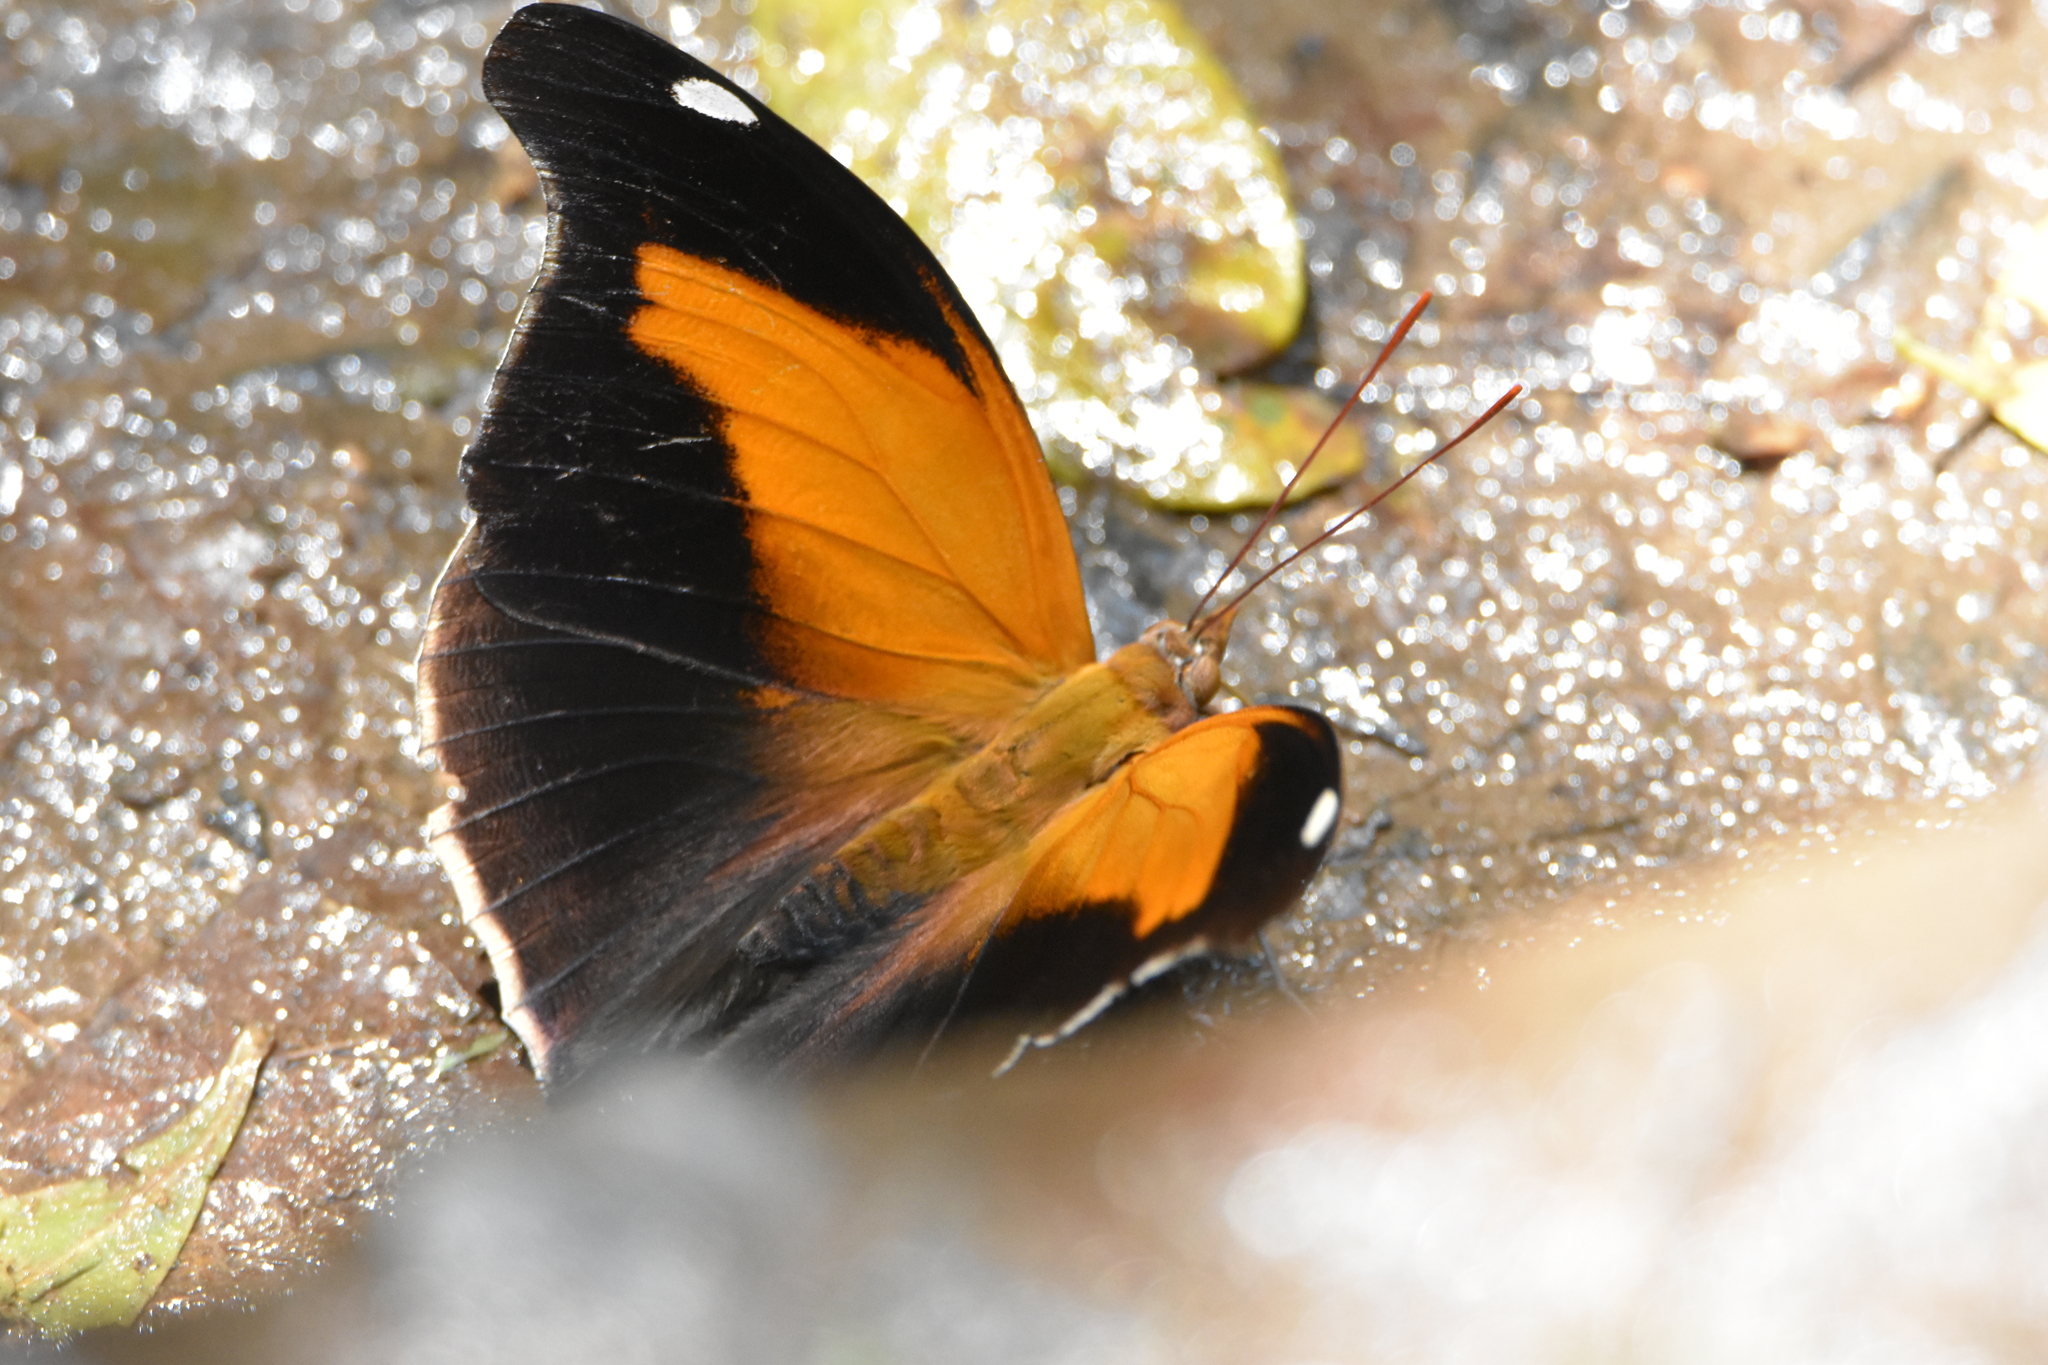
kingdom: Animalia
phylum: Arthropoda
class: Insecta
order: Lepidoptera
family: Nymphalidae
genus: Historis
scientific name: Historis odius
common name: Orion cecropian
